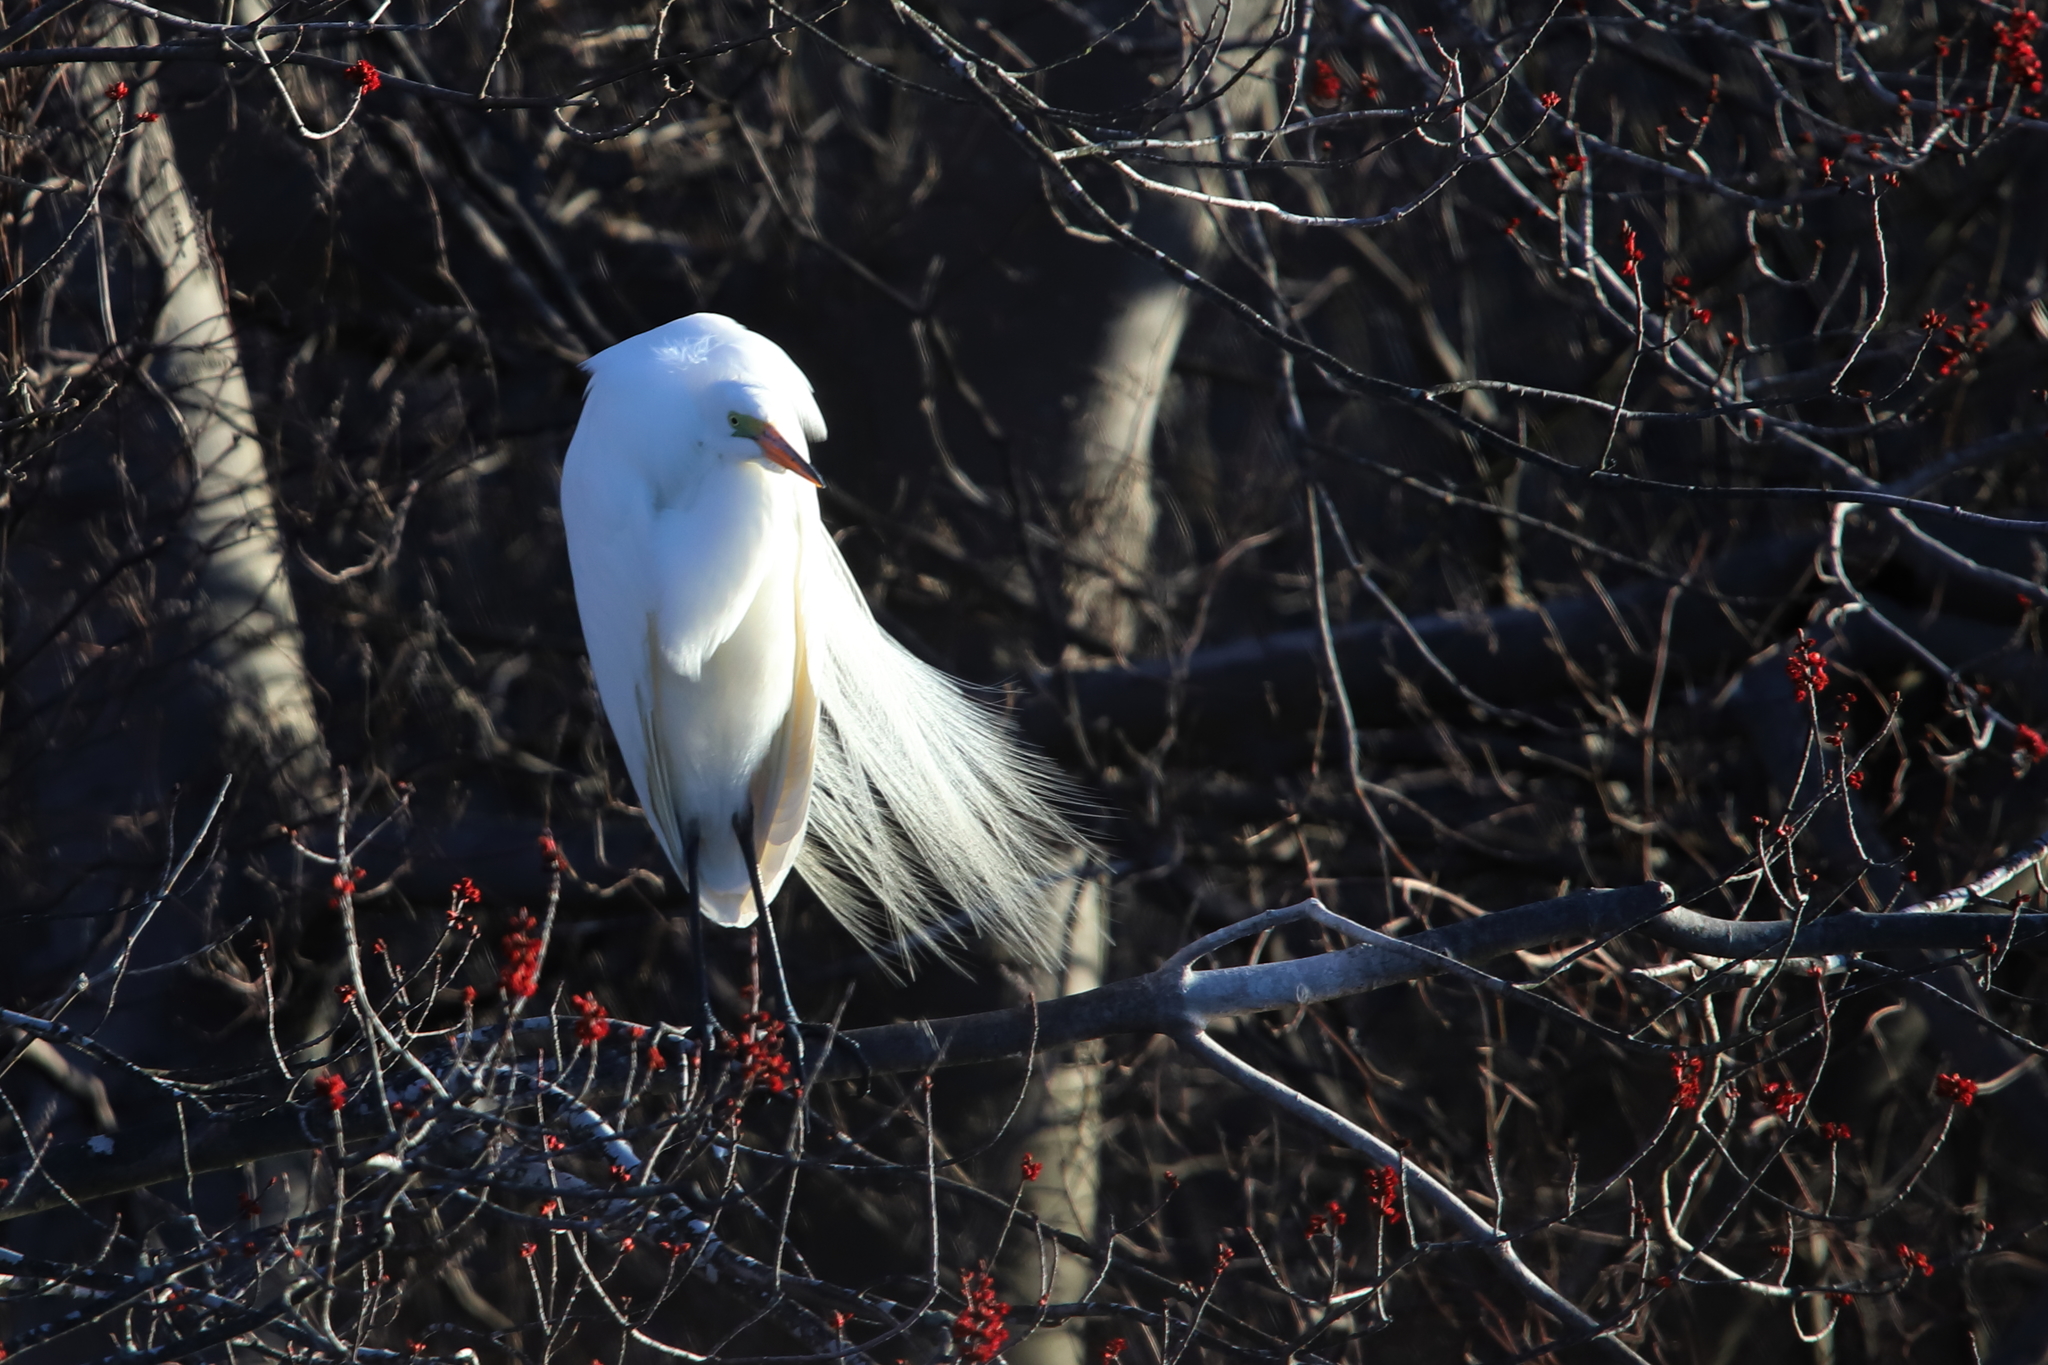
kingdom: Animalia
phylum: Chordata
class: Aves
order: Pelecaniformes
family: Ardeidae
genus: Ardea
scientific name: Ardea alba
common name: Great egret
